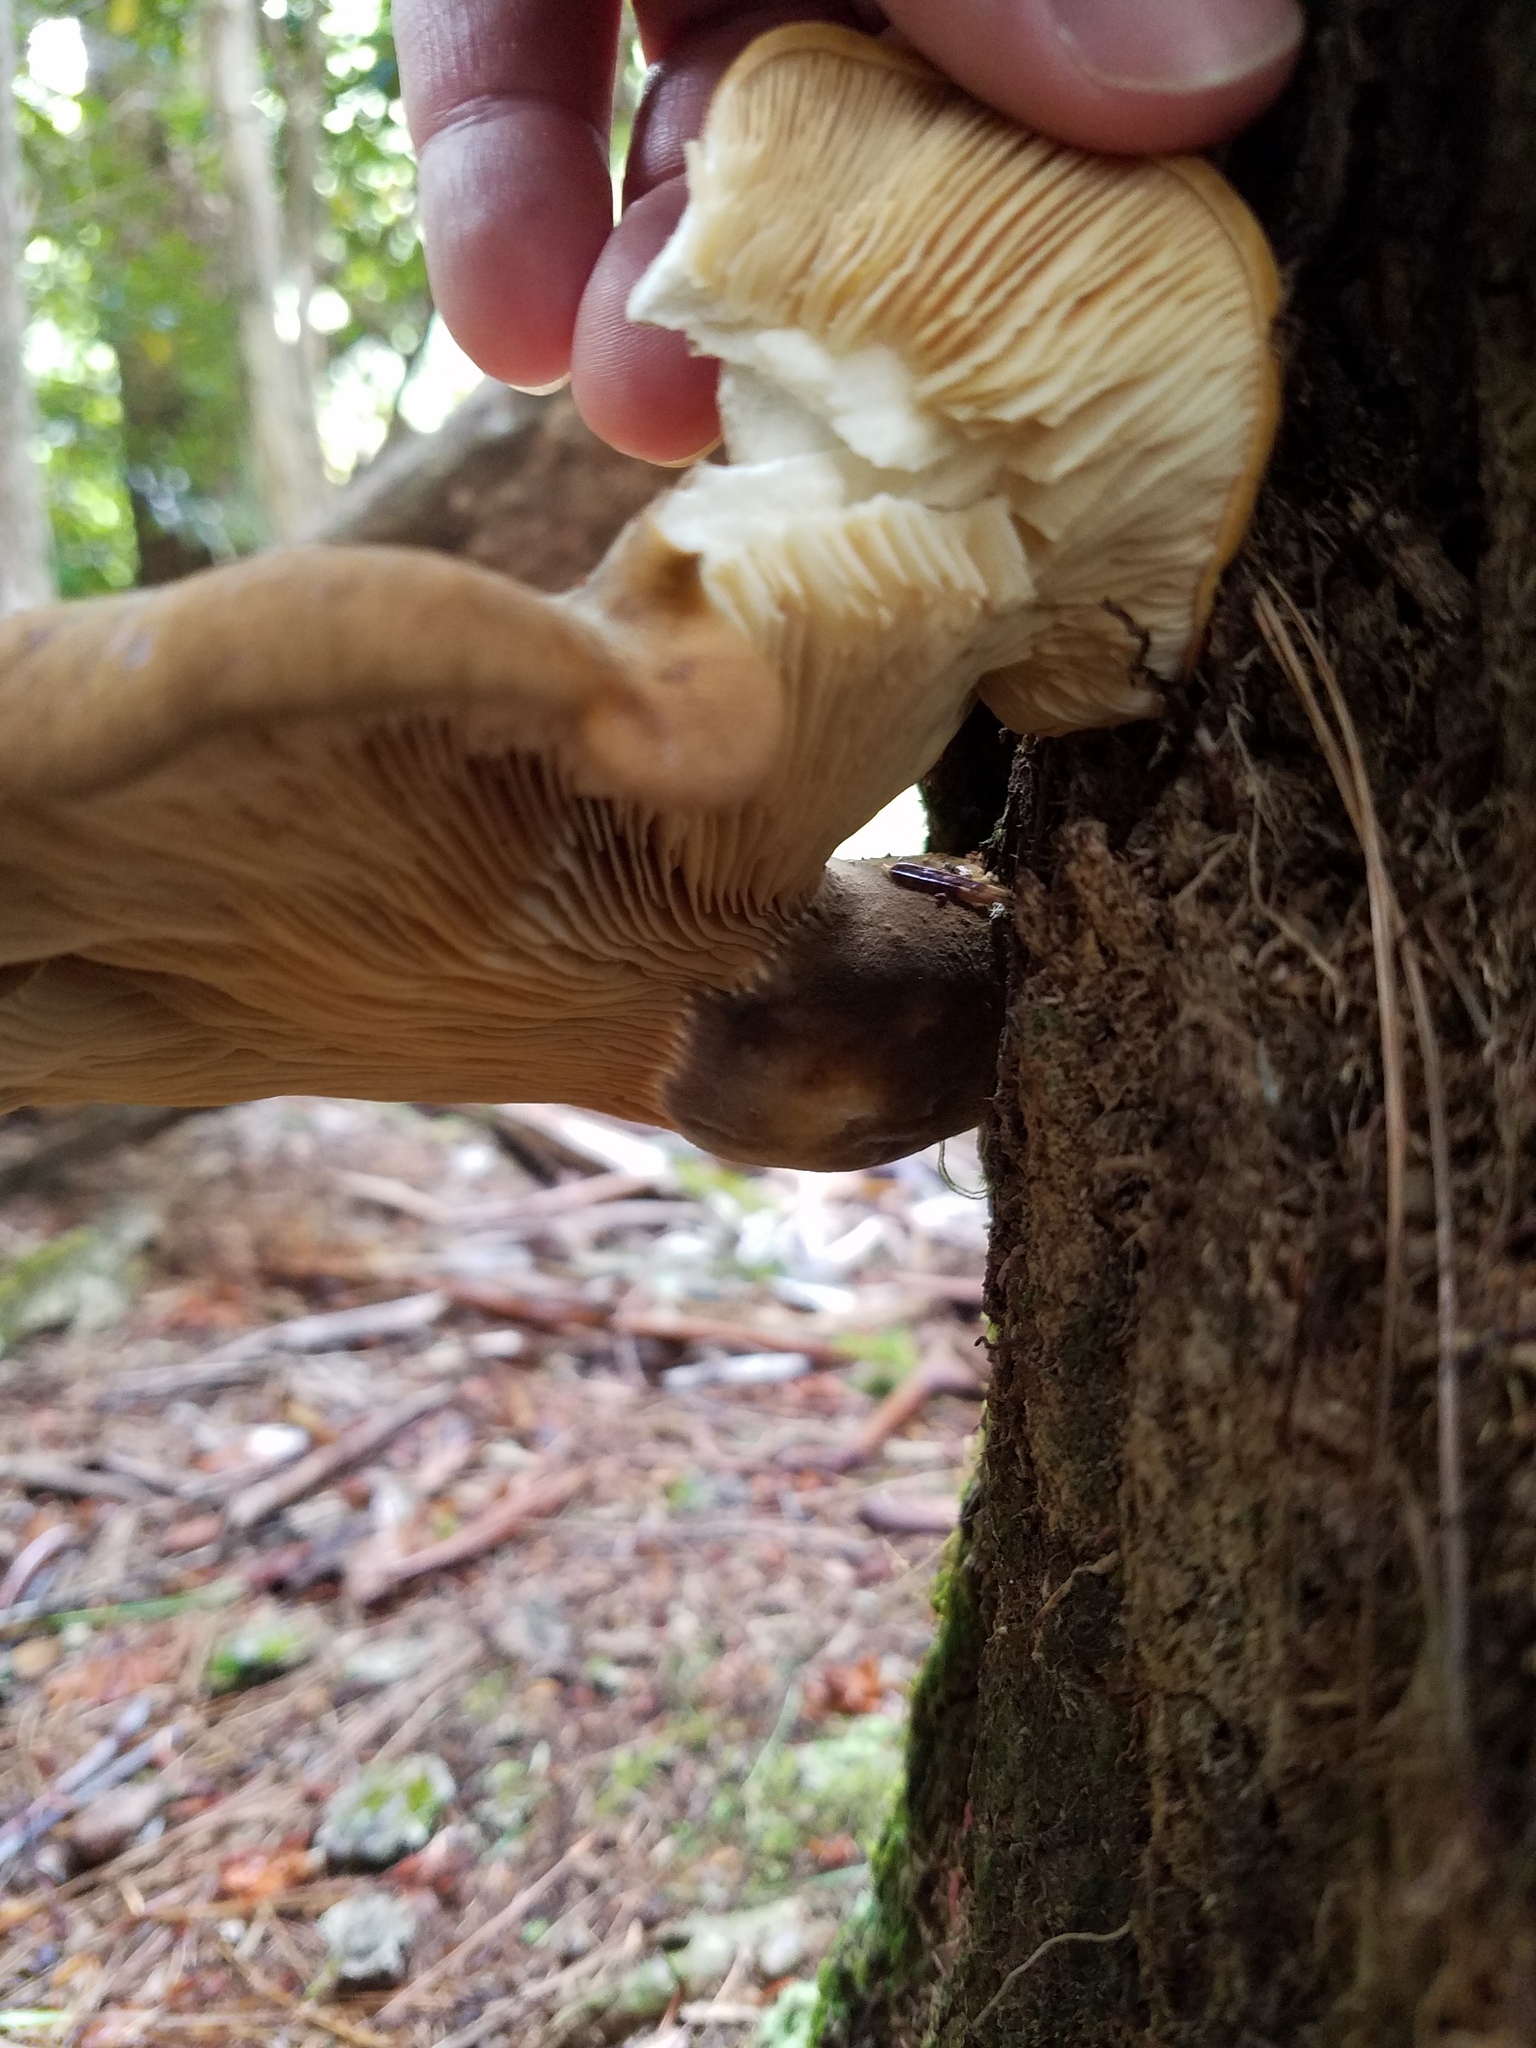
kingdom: Fungi
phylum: Basidiomycota
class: Agaricomycetes
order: Boletales
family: Tapinellaceae
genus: Tapinella
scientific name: Tapinella atrotomentosa
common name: Velvet rollrim
